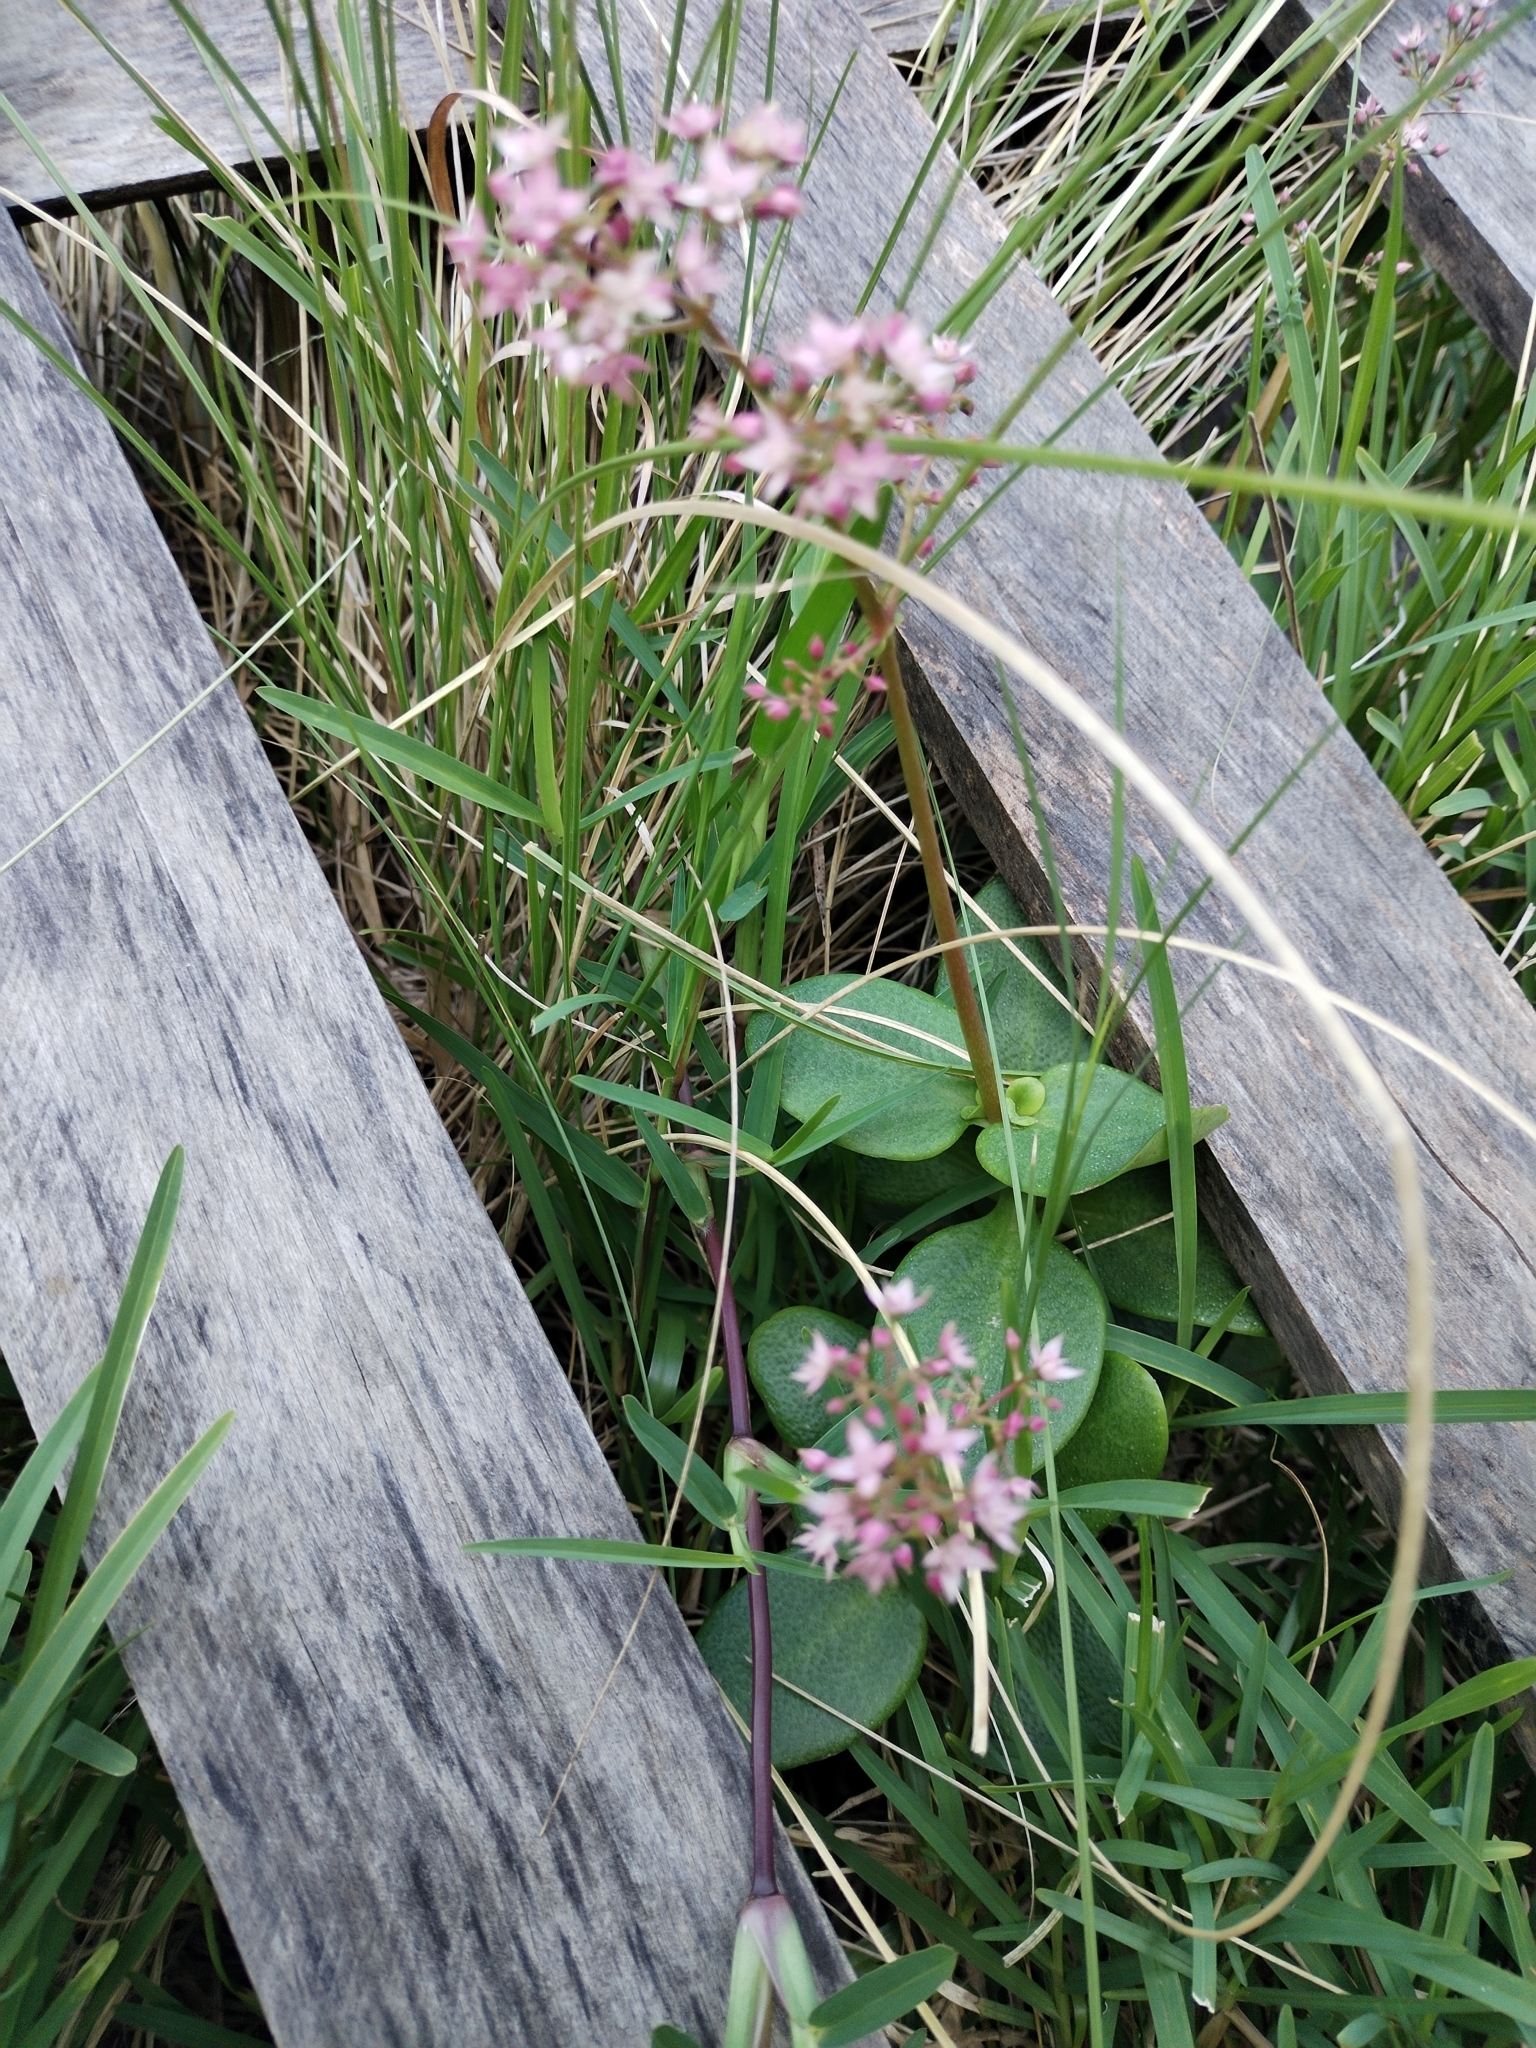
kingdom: Plantae
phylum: Tracheophyta
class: Magnoliopsida
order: Saxifragales
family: Crassulaceae
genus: Crassula
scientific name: Crassula multicava
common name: Cape province pygmyweed
